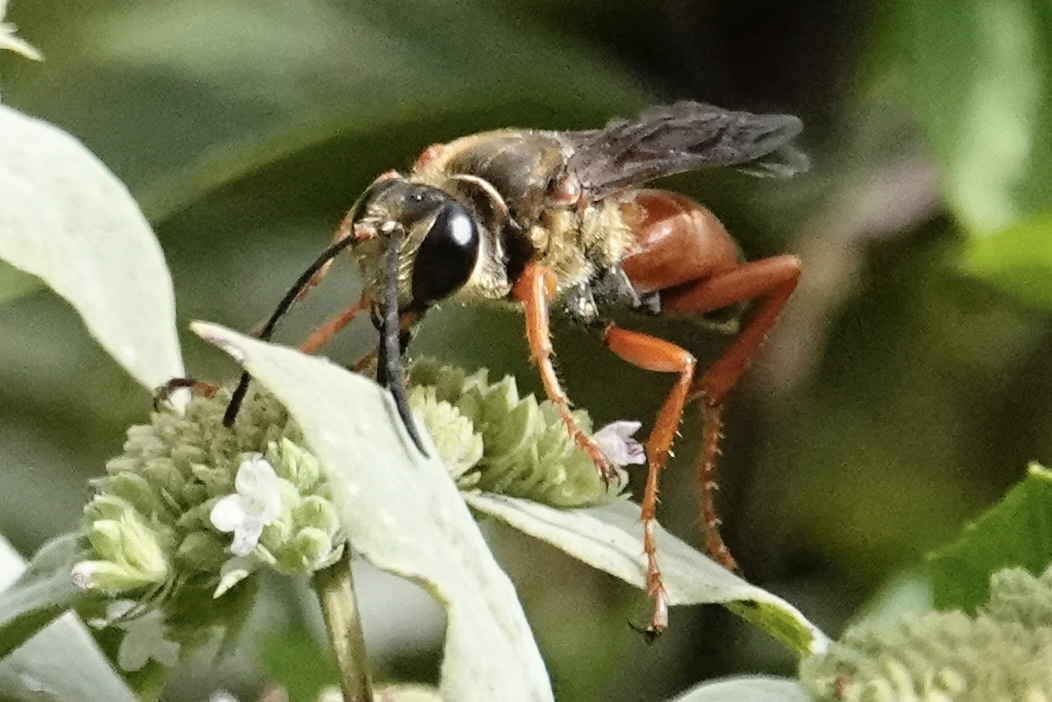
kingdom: Animalia
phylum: Arthropoda
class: Insecta
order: Hymenoptera
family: Sphecidae
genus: Sphex
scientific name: Sphex ichneumoneus
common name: Great golden digger wasp
